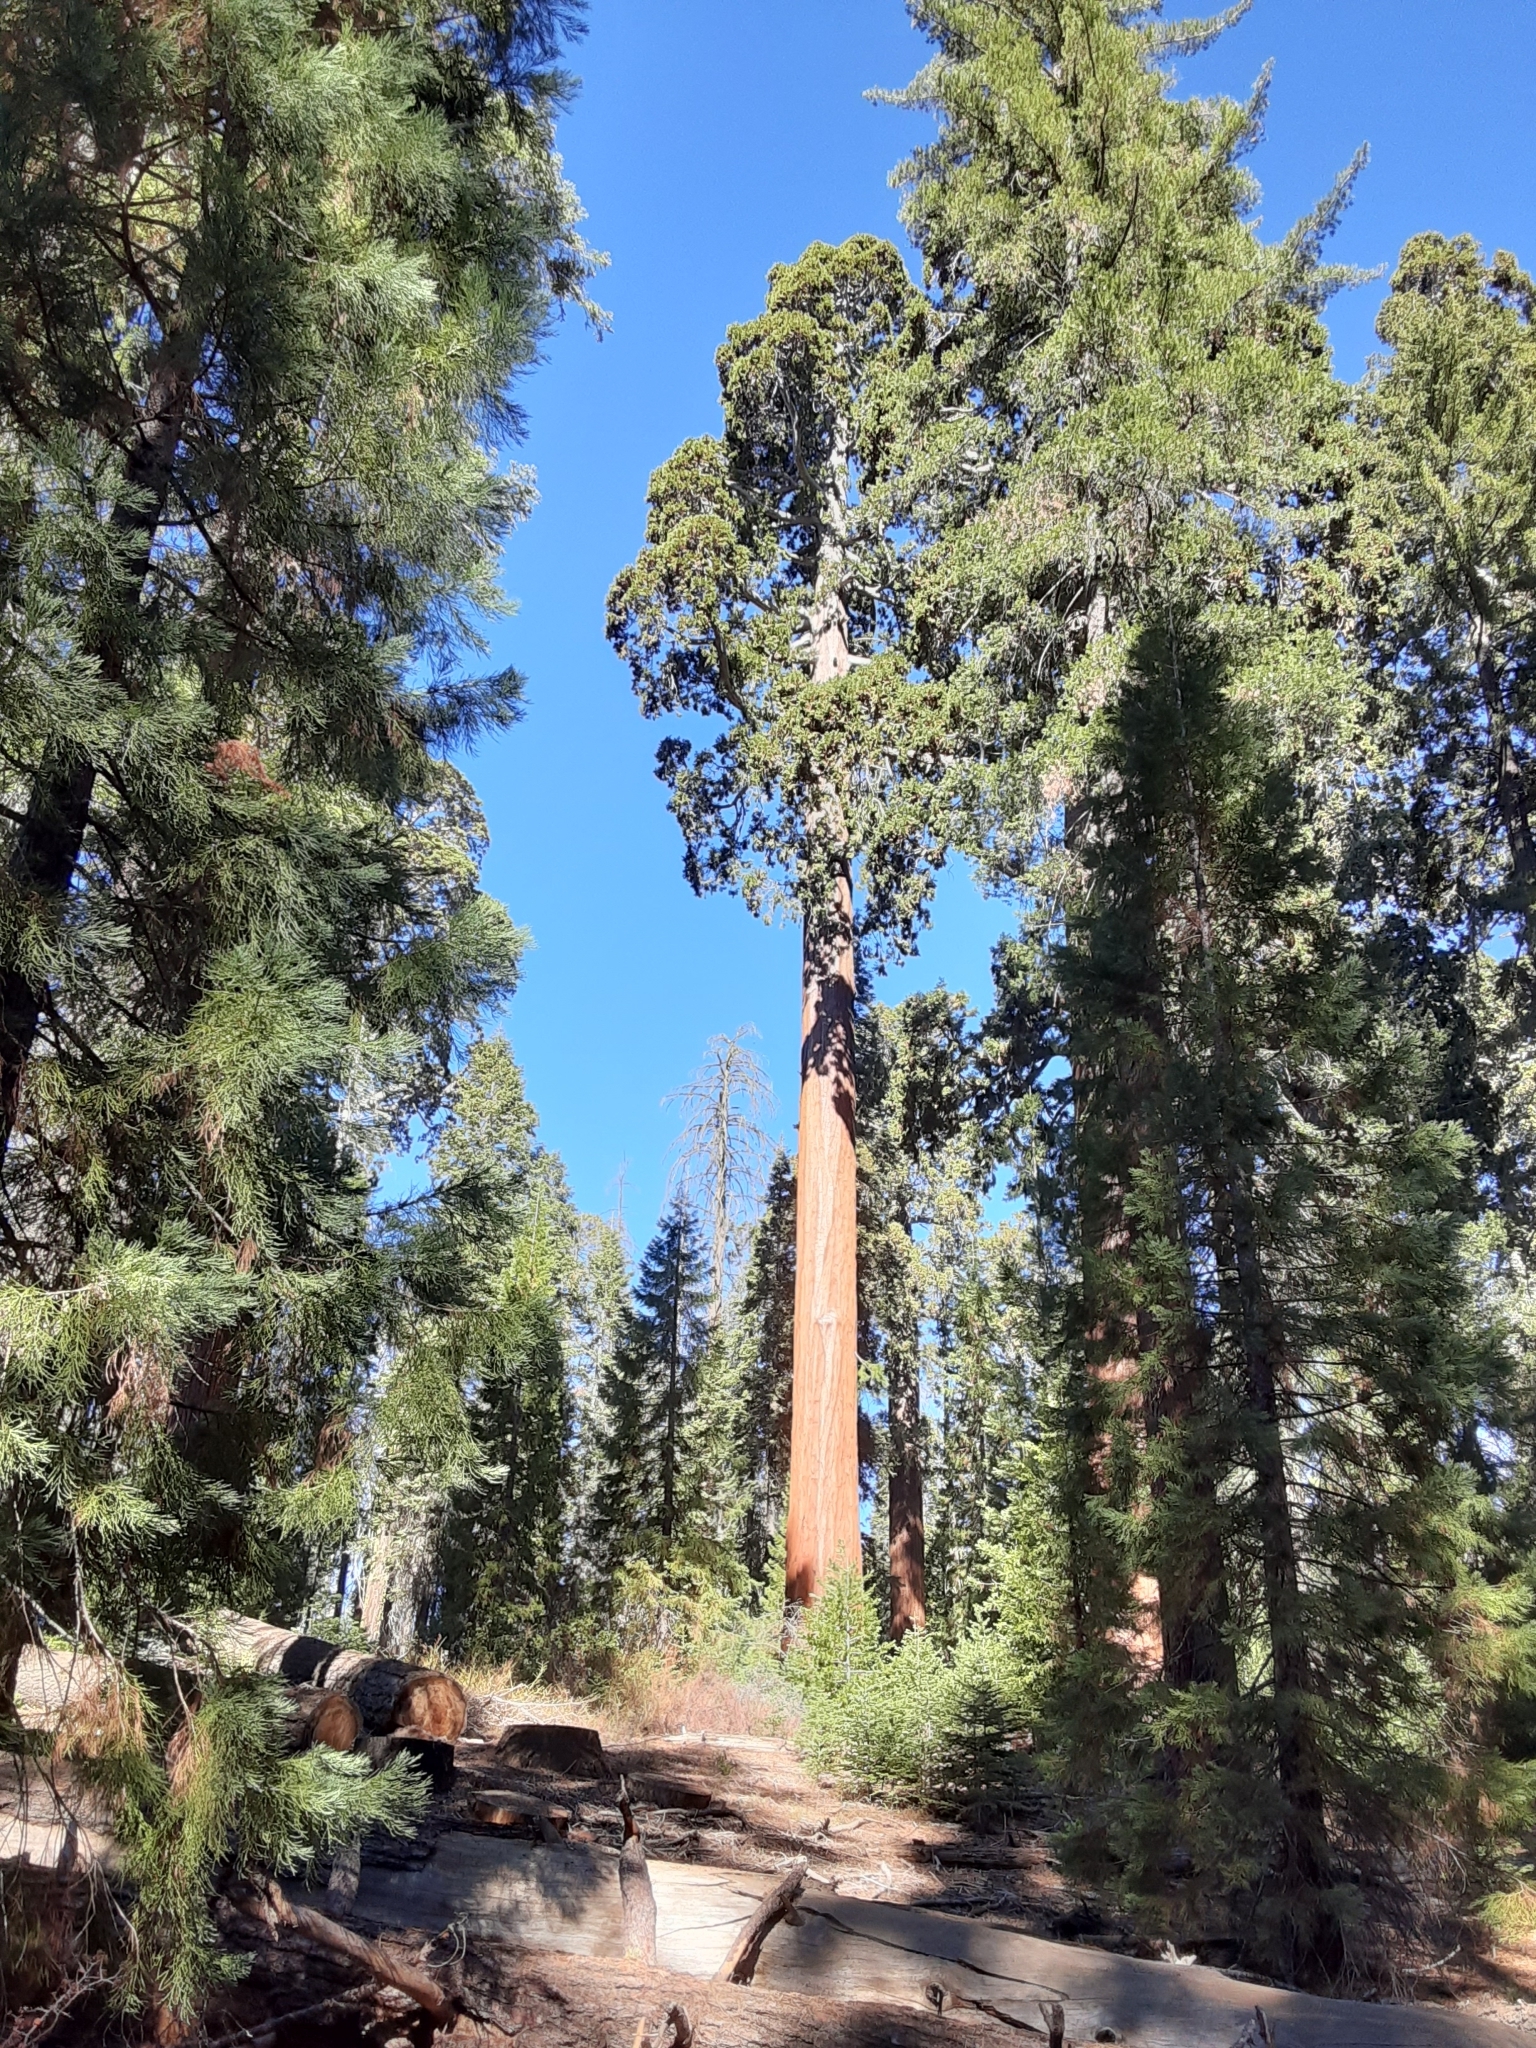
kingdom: Plantae
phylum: Tracheophyta
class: Pinopsida
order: Pinales
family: Cupressaceae
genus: Sequoiadendron
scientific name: Sequoiadendron giganteum
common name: Wellingtonia
